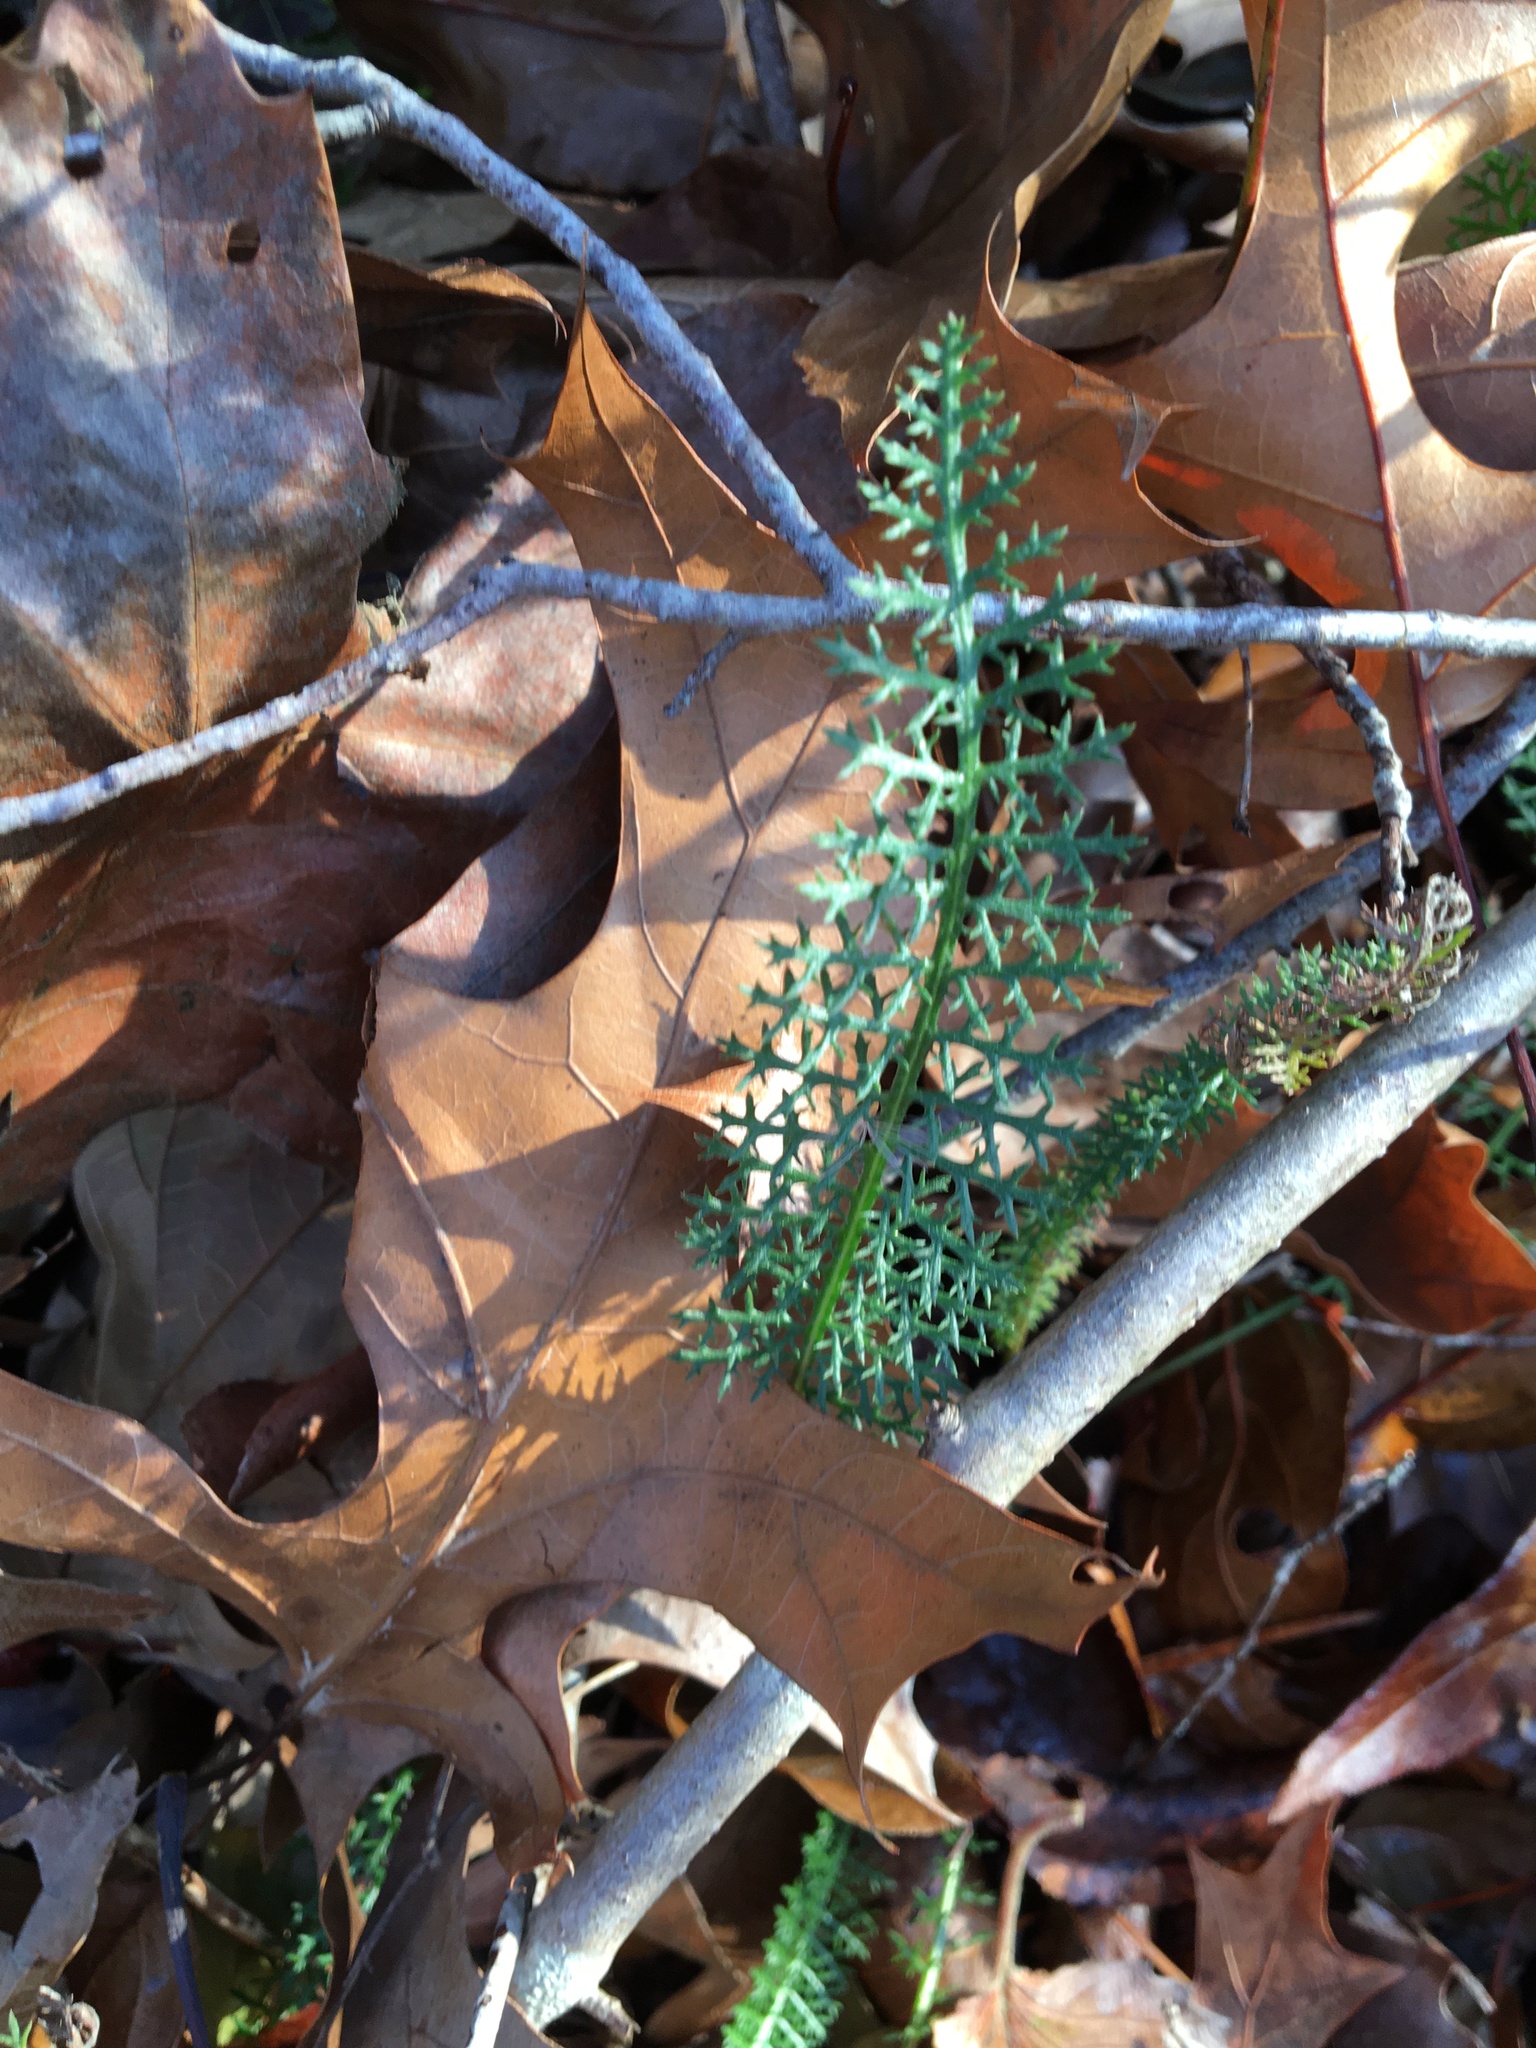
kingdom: Plantae
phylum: Tracheophyta
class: Magnoliopsida
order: Asterales
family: Asteraceae
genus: Achillea
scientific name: Achillea millefolium
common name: Yarrow
